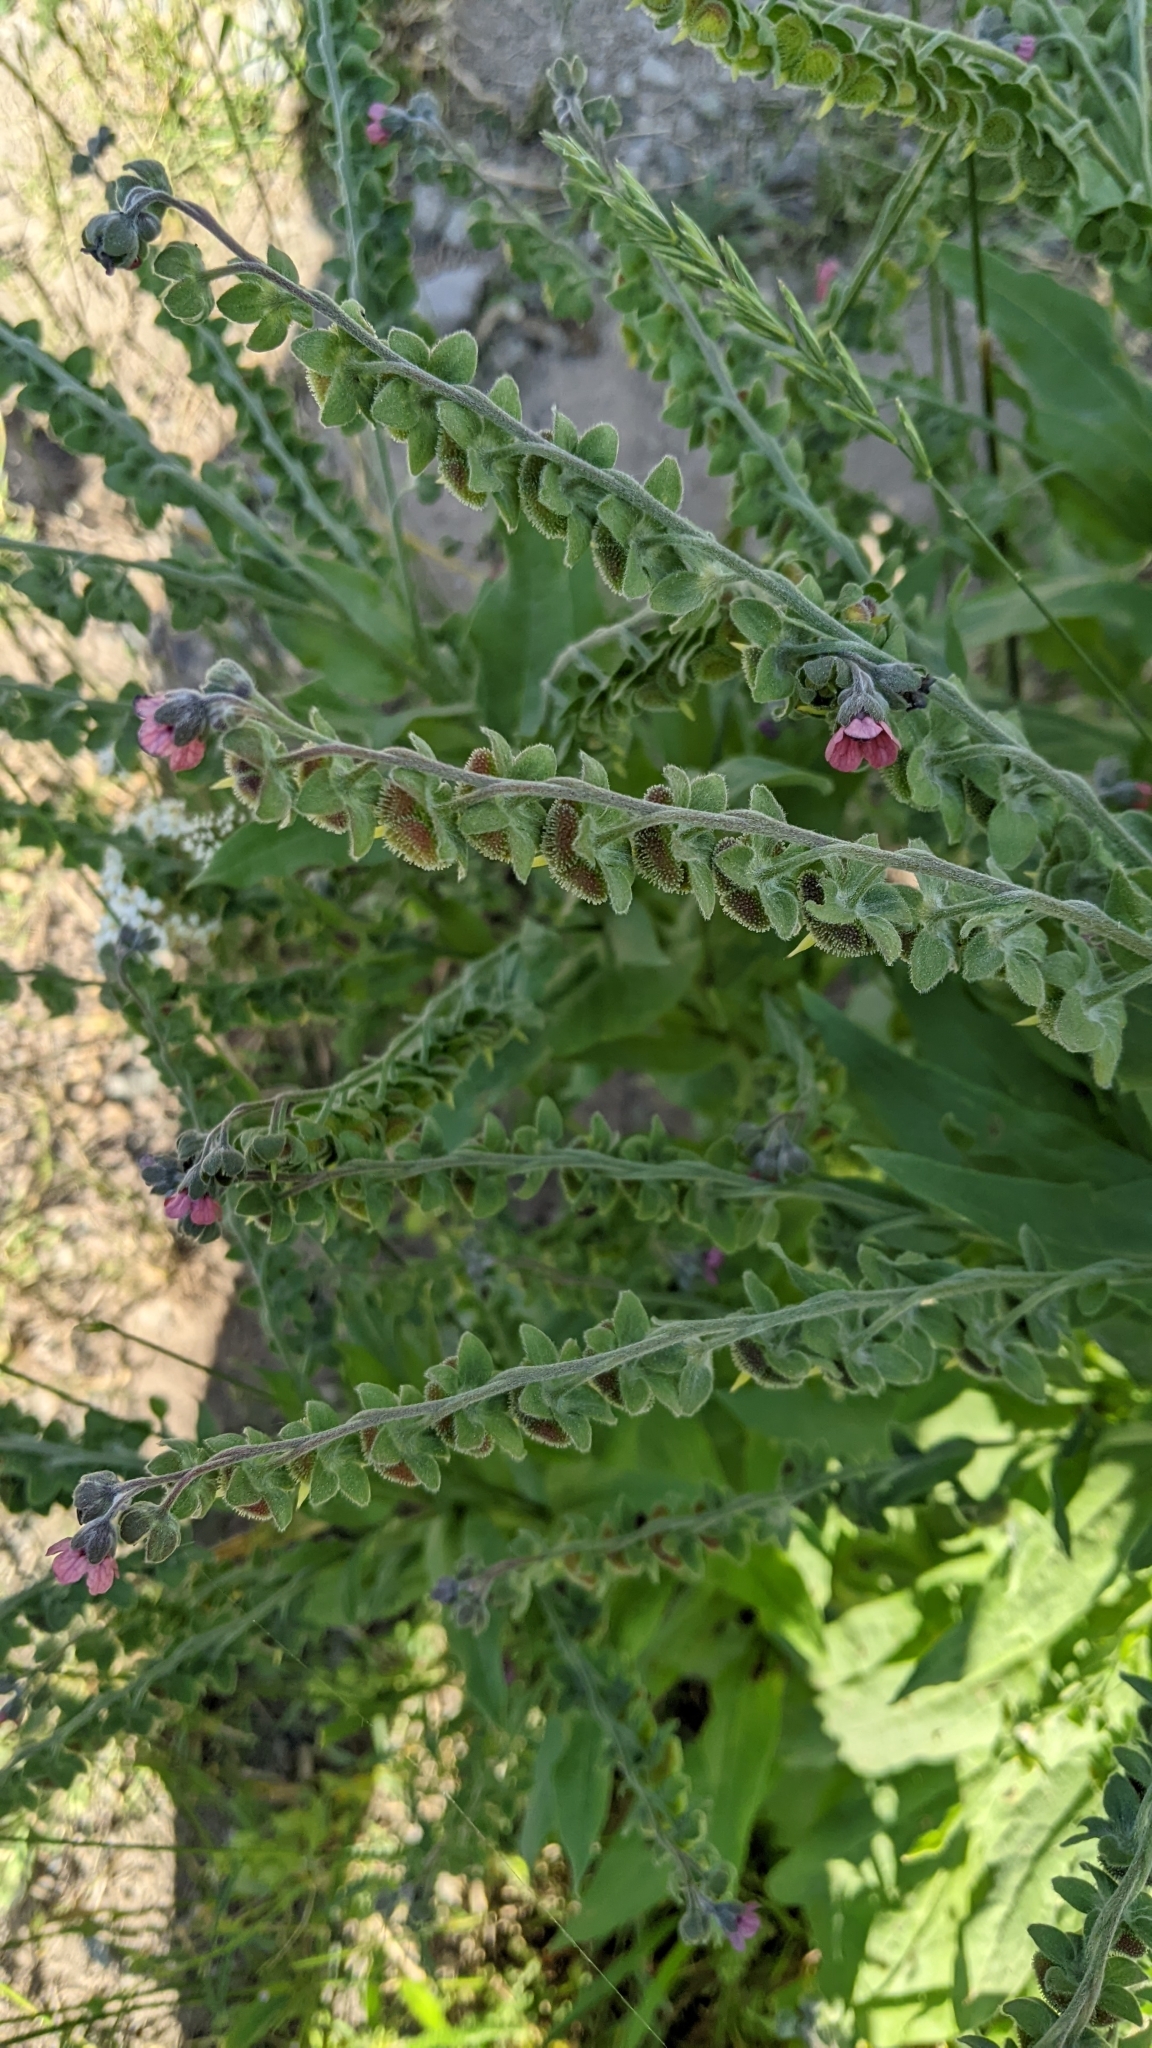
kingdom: Plantae
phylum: Tracheophyta
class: Magnoliopsida
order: Boraginales
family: Boraginaceae
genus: Cynoglossum
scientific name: Cynoglossum officinale
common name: Hound's-tongue
